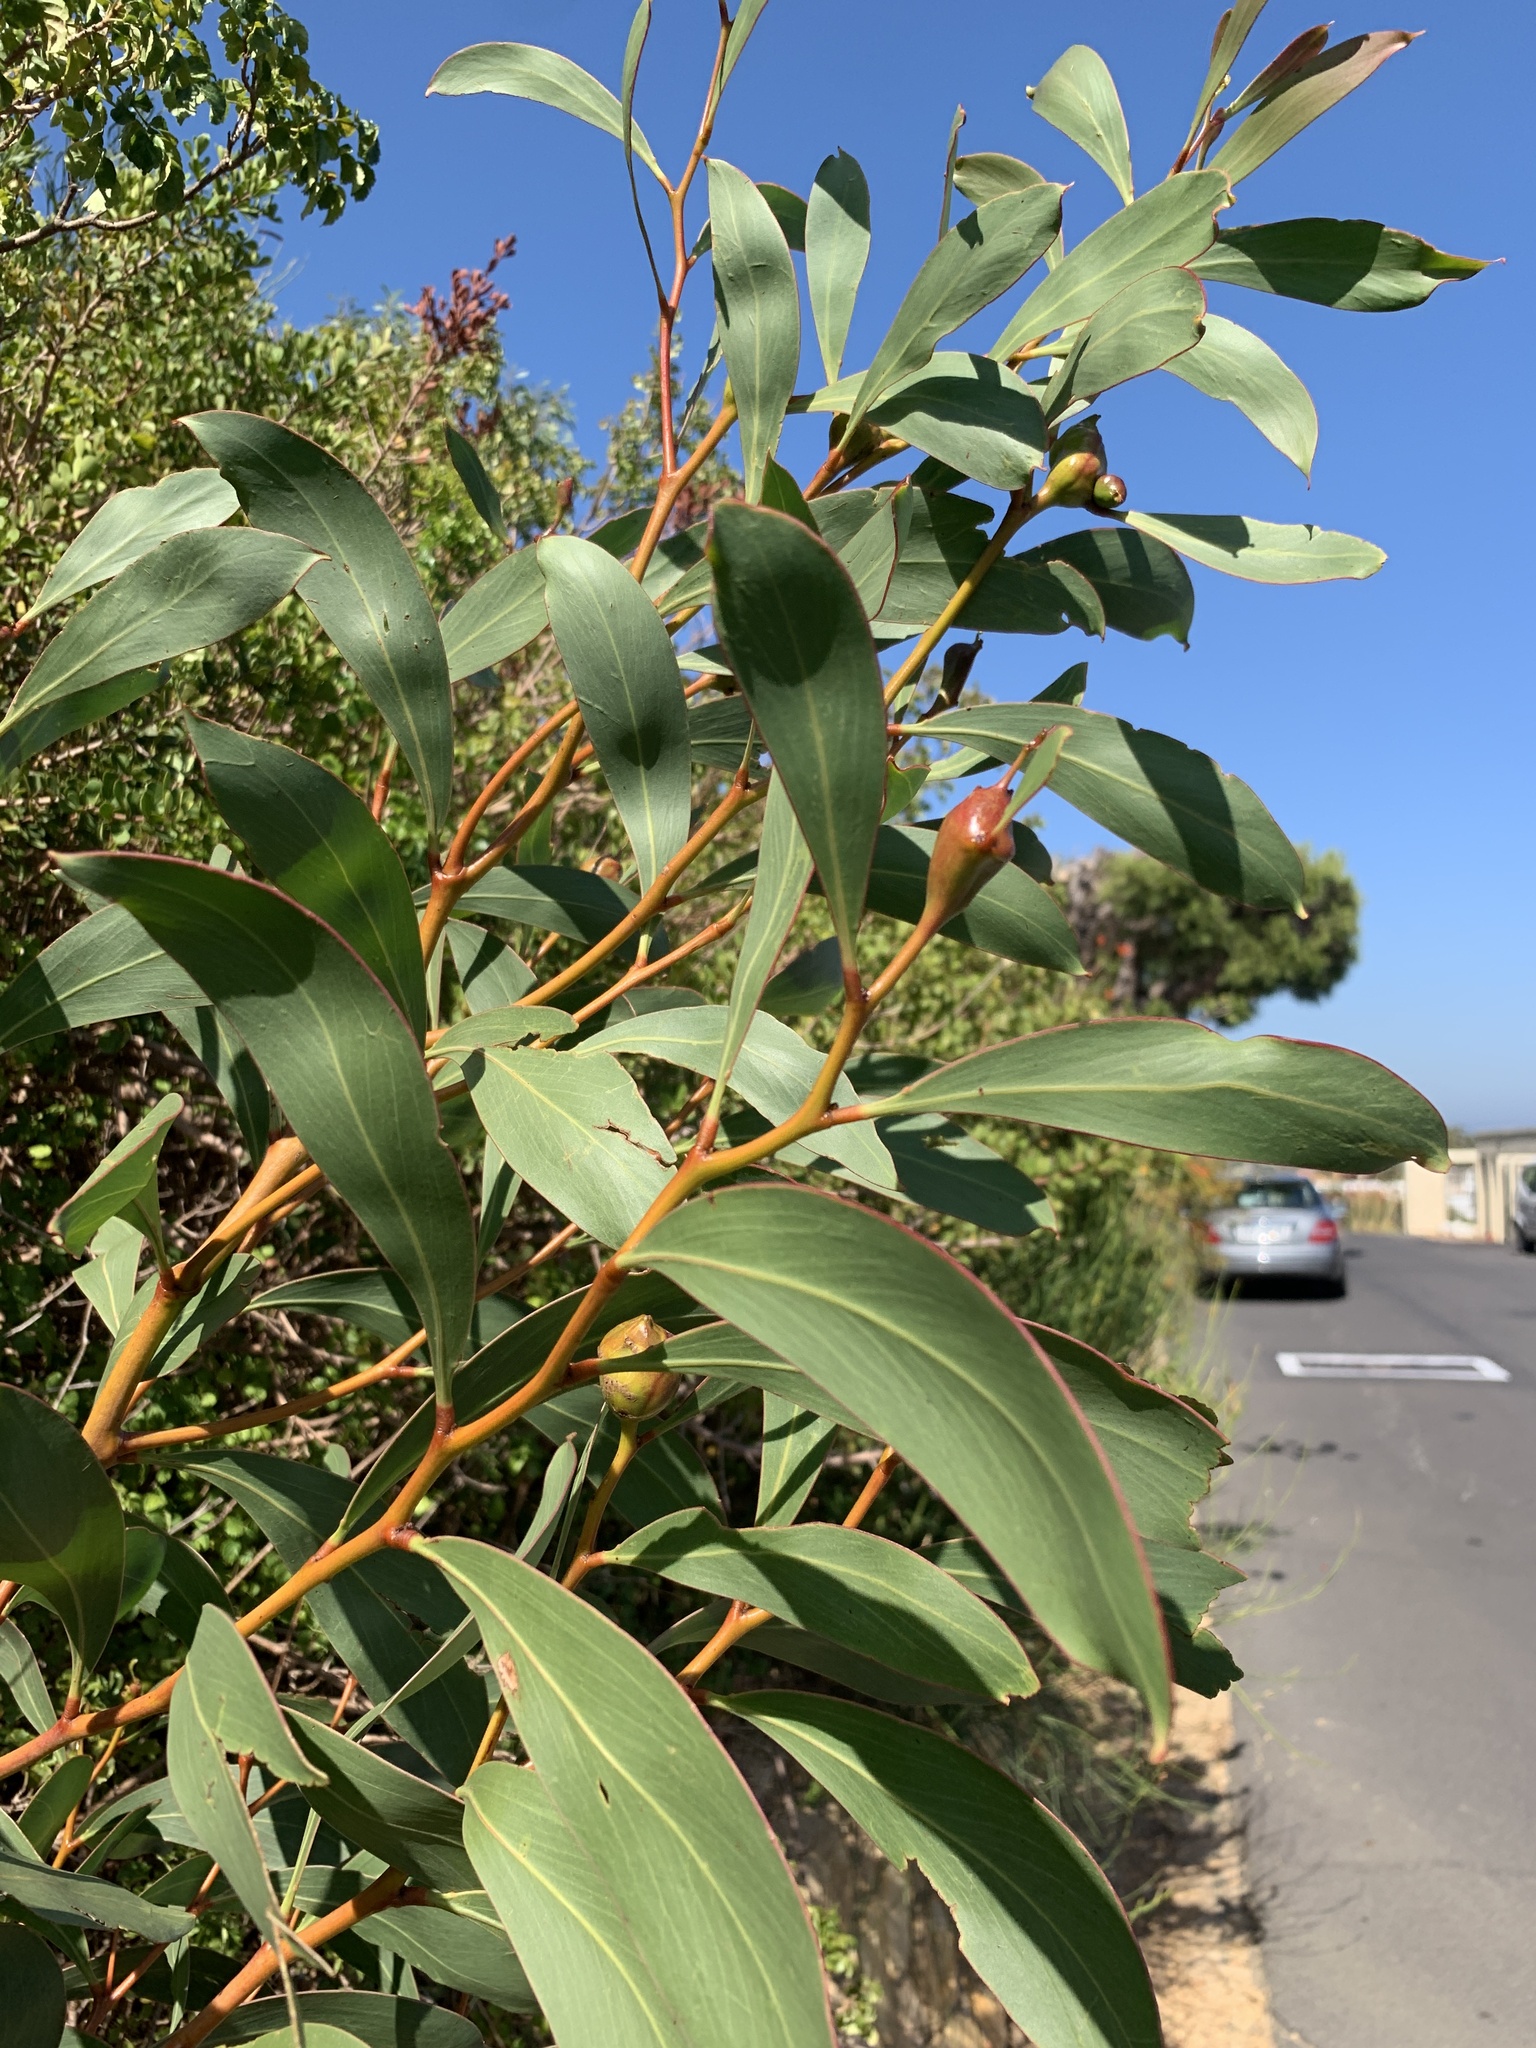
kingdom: Plantae
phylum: Tracheophyta
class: Magnoliopsida
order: Fabales
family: Fabaceae
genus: Acacia
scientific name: Acacia pycnantha
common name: Golden wattle
